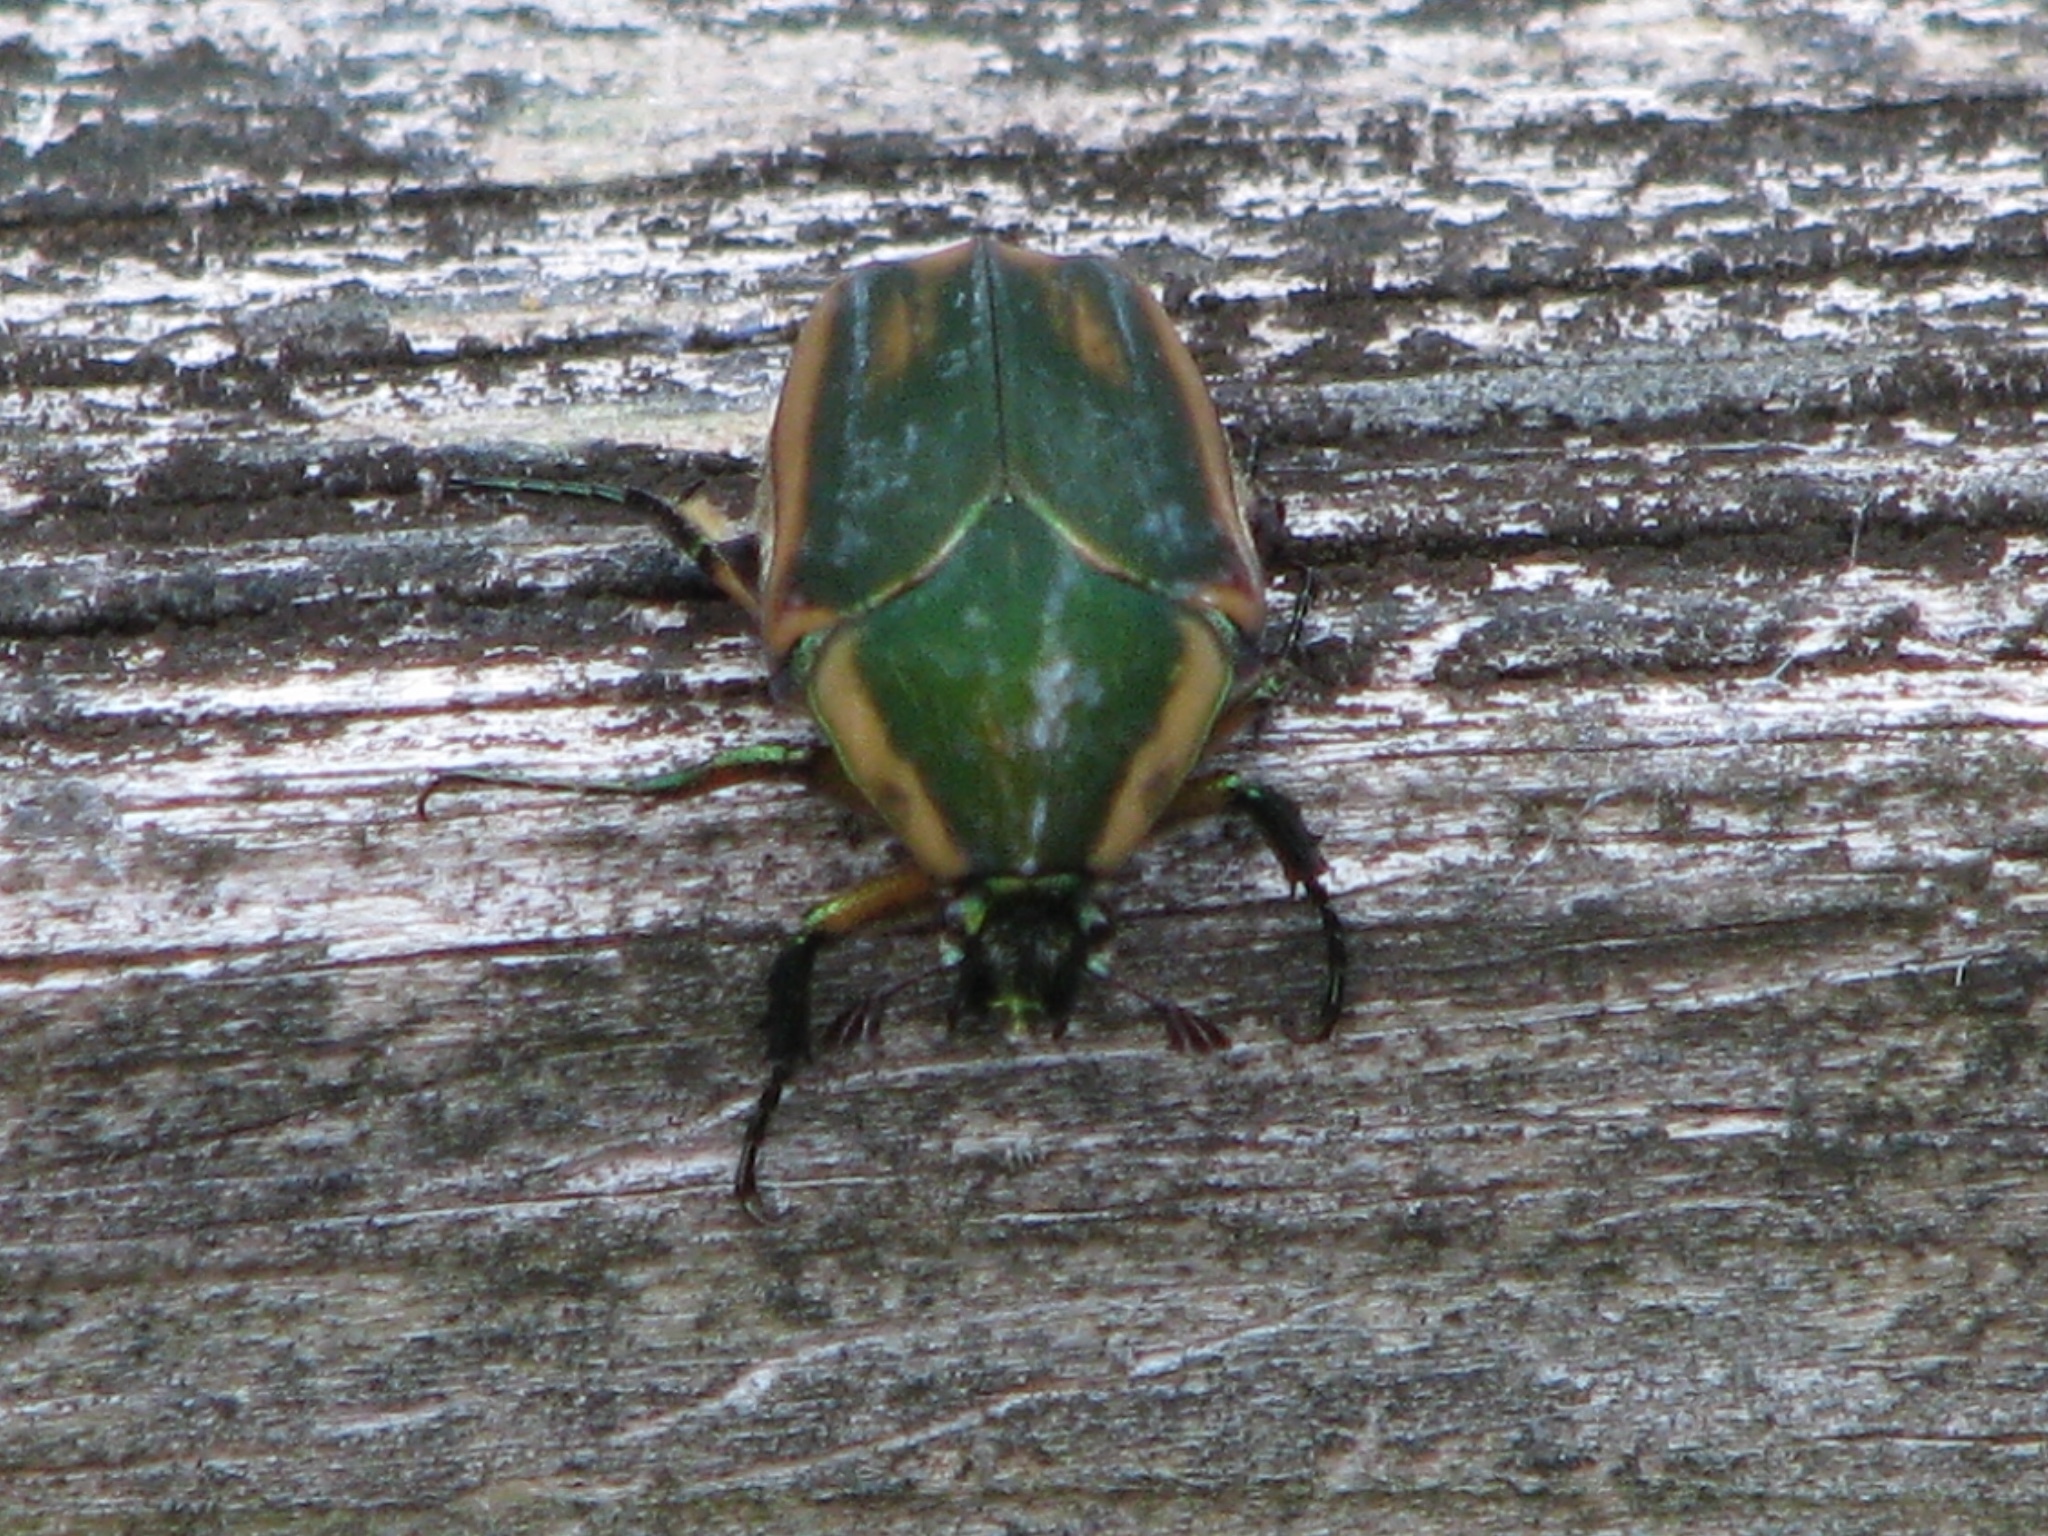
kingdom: Animalia
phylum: Arthropoda
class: Insecta
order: Coleoptera
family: Scarabaeidae
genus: Cotinis
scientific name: Cotinis nitida
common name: Common green june beetle
